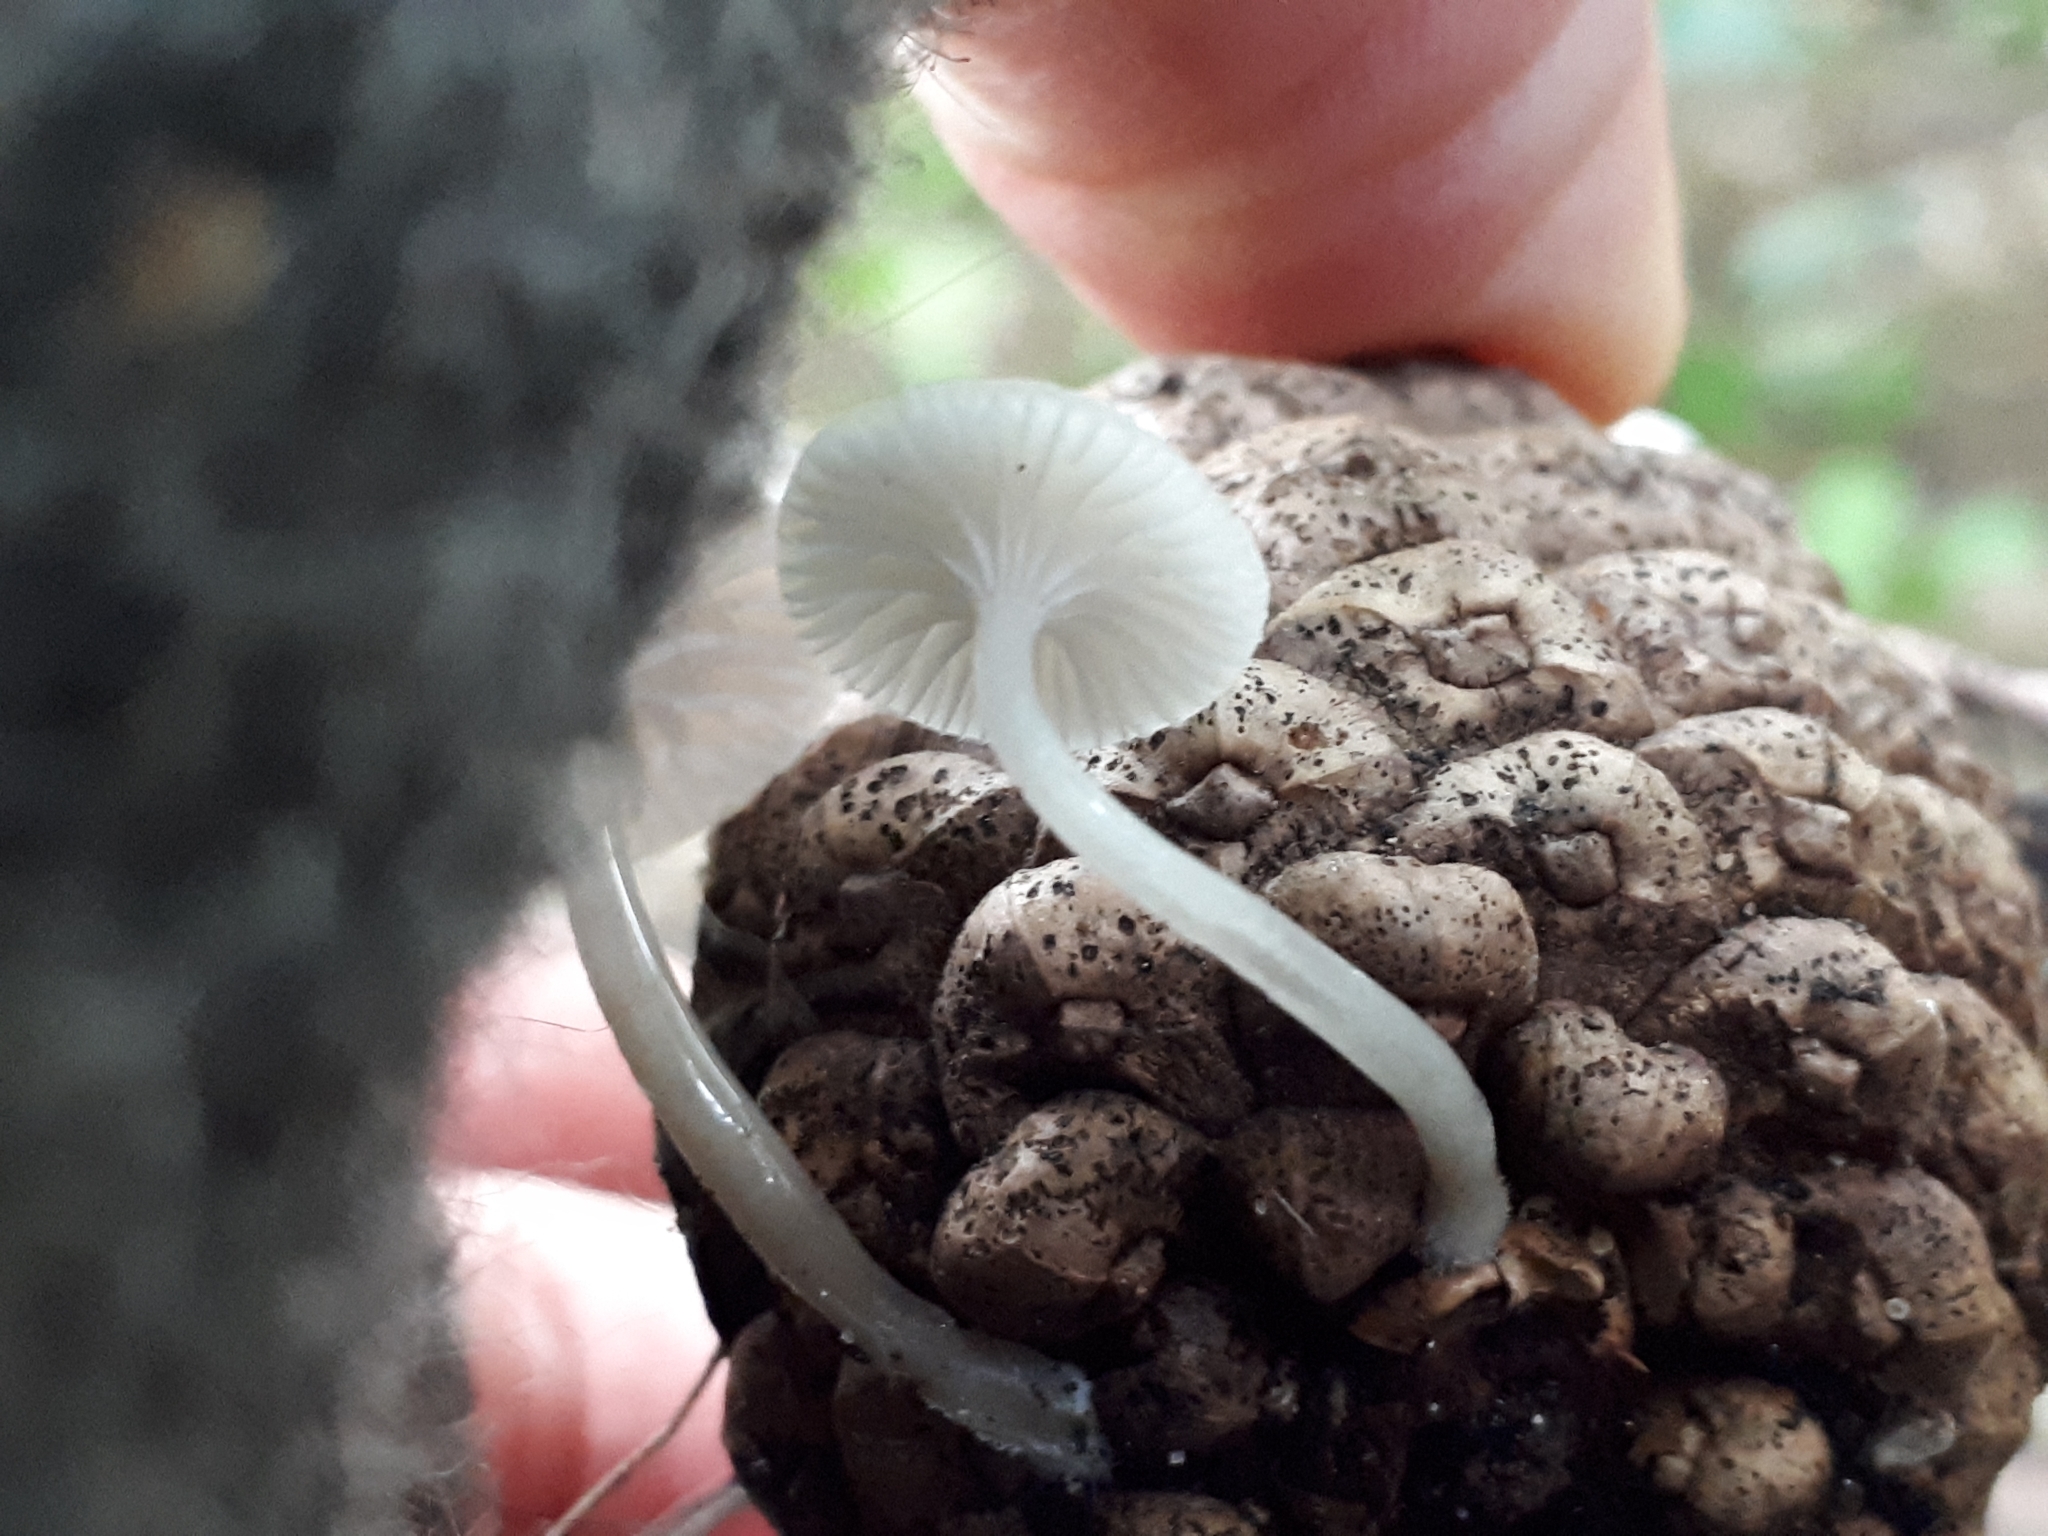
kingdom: Fungi
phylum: Basidiomycota
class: Agaricomycetes
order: Agaricales
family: Mycenaceae
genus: Roridomyces
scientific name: Roridomyces austrororidus
